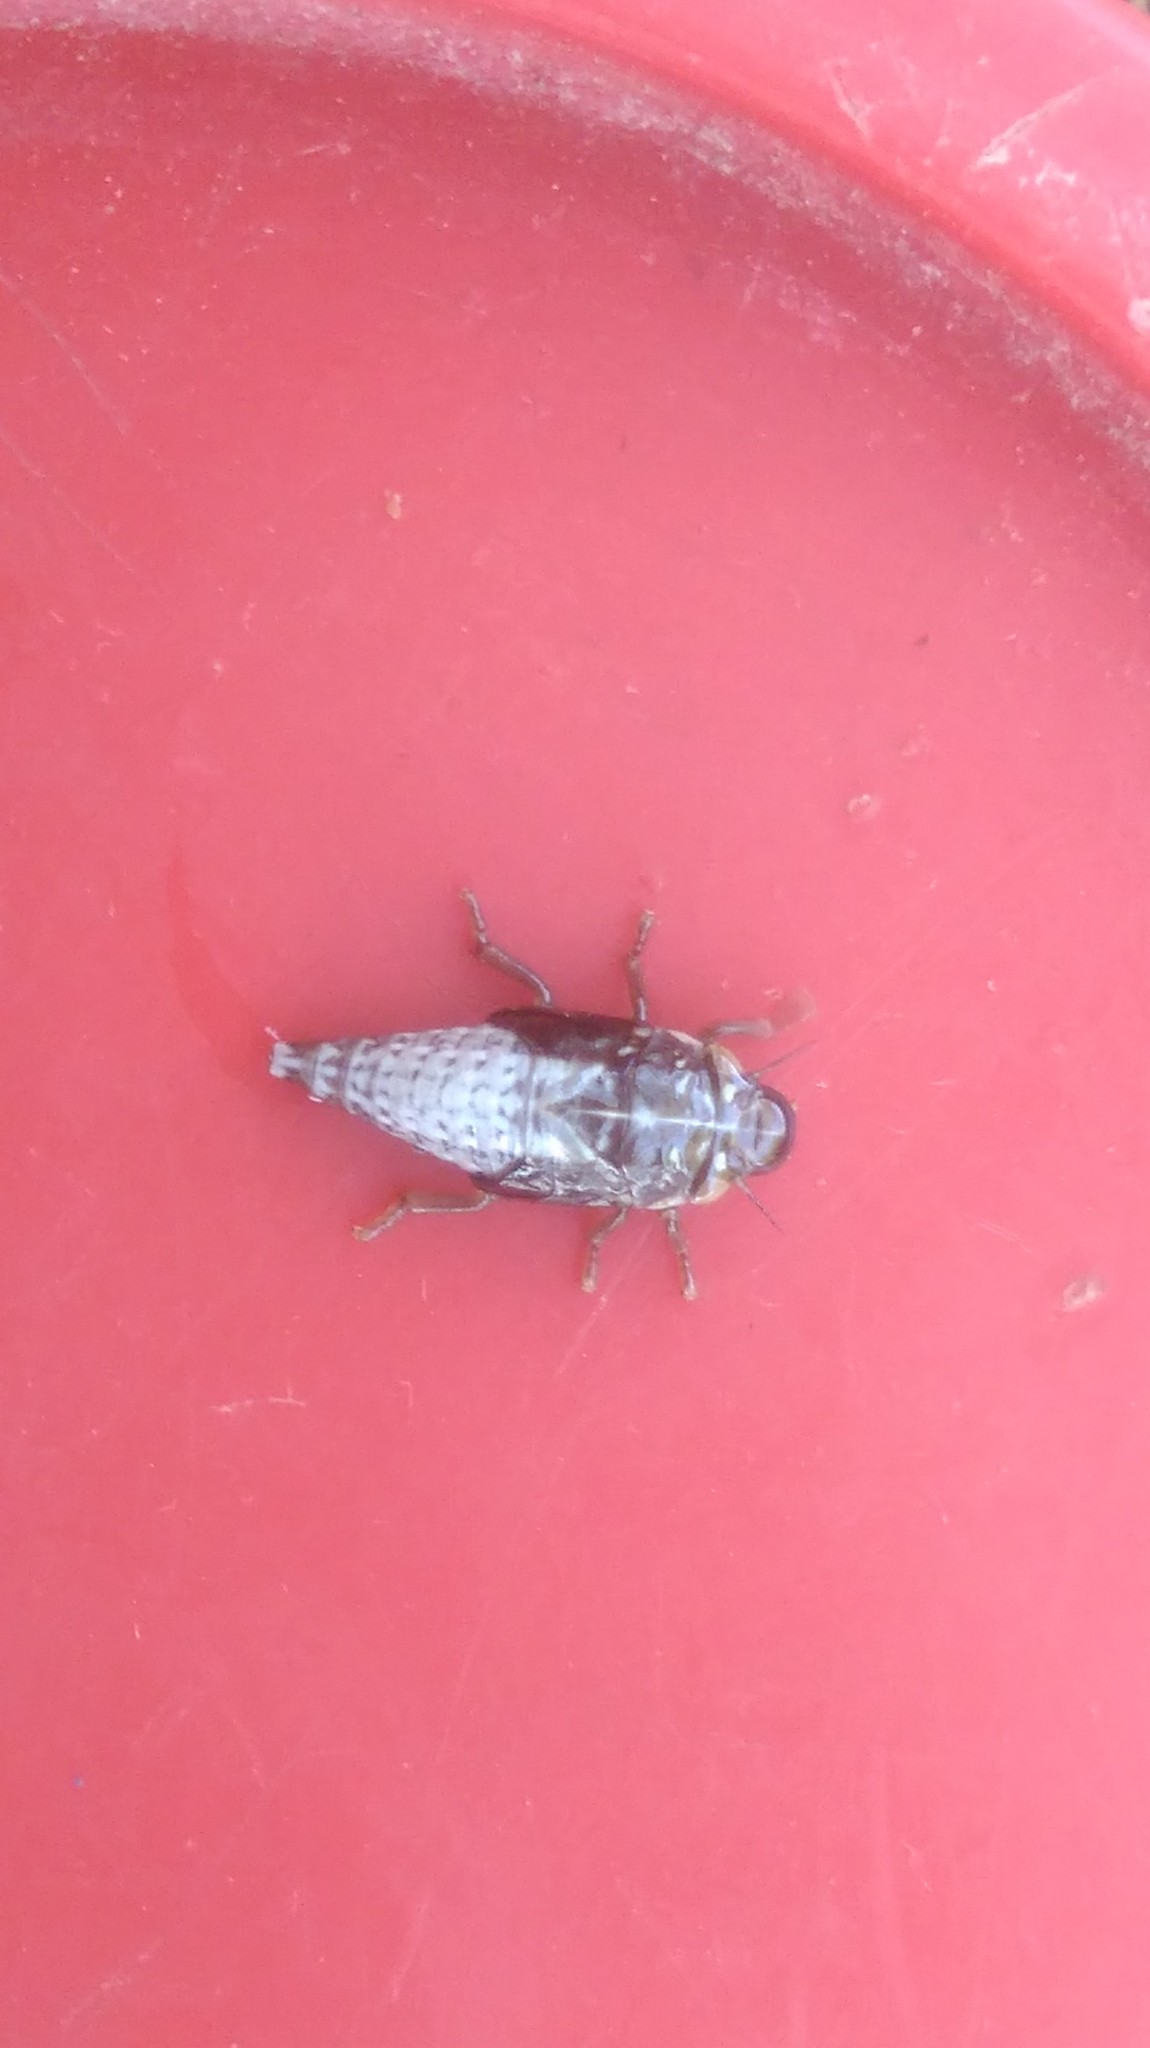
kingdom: Animalia
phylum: Arthropoda
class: Insecta
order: Hemiptera
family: Aphrophoridae
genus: Cephisus
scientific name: Cephisus siccifolius
